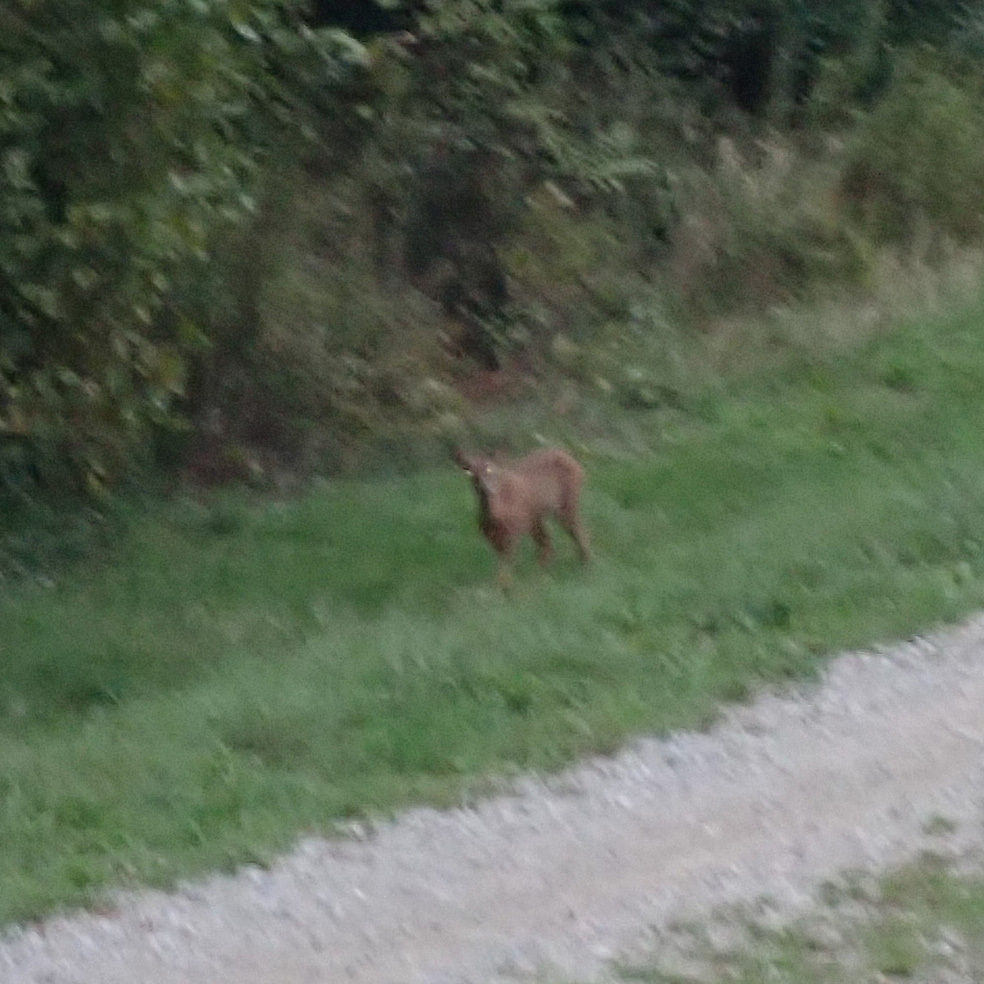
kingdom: Animalia
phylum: Chordata
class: Mammalia
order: Artiodactyla
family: Cervidae
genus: Capreolus
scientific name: Capreolus capreolus
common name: Western roe deer
